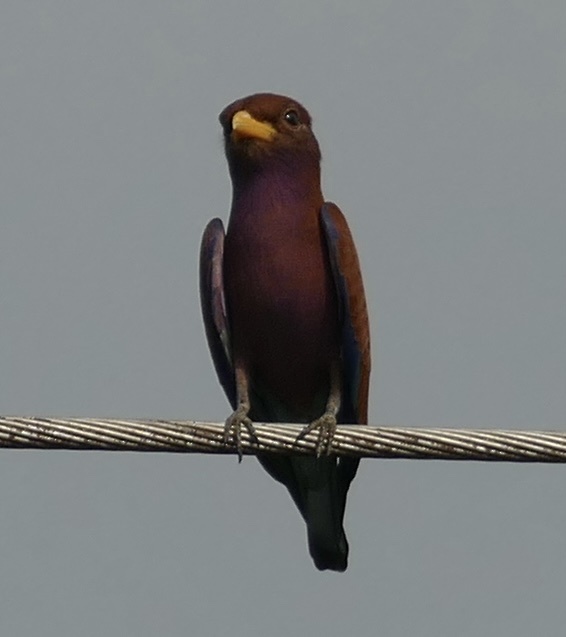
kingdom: Animalia
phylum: Chordata
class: Aves
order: Coraciiformes
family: Coraciidae
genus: Eurystomus
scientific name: Eurystomus glaucurus
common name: Broad-billed roller
